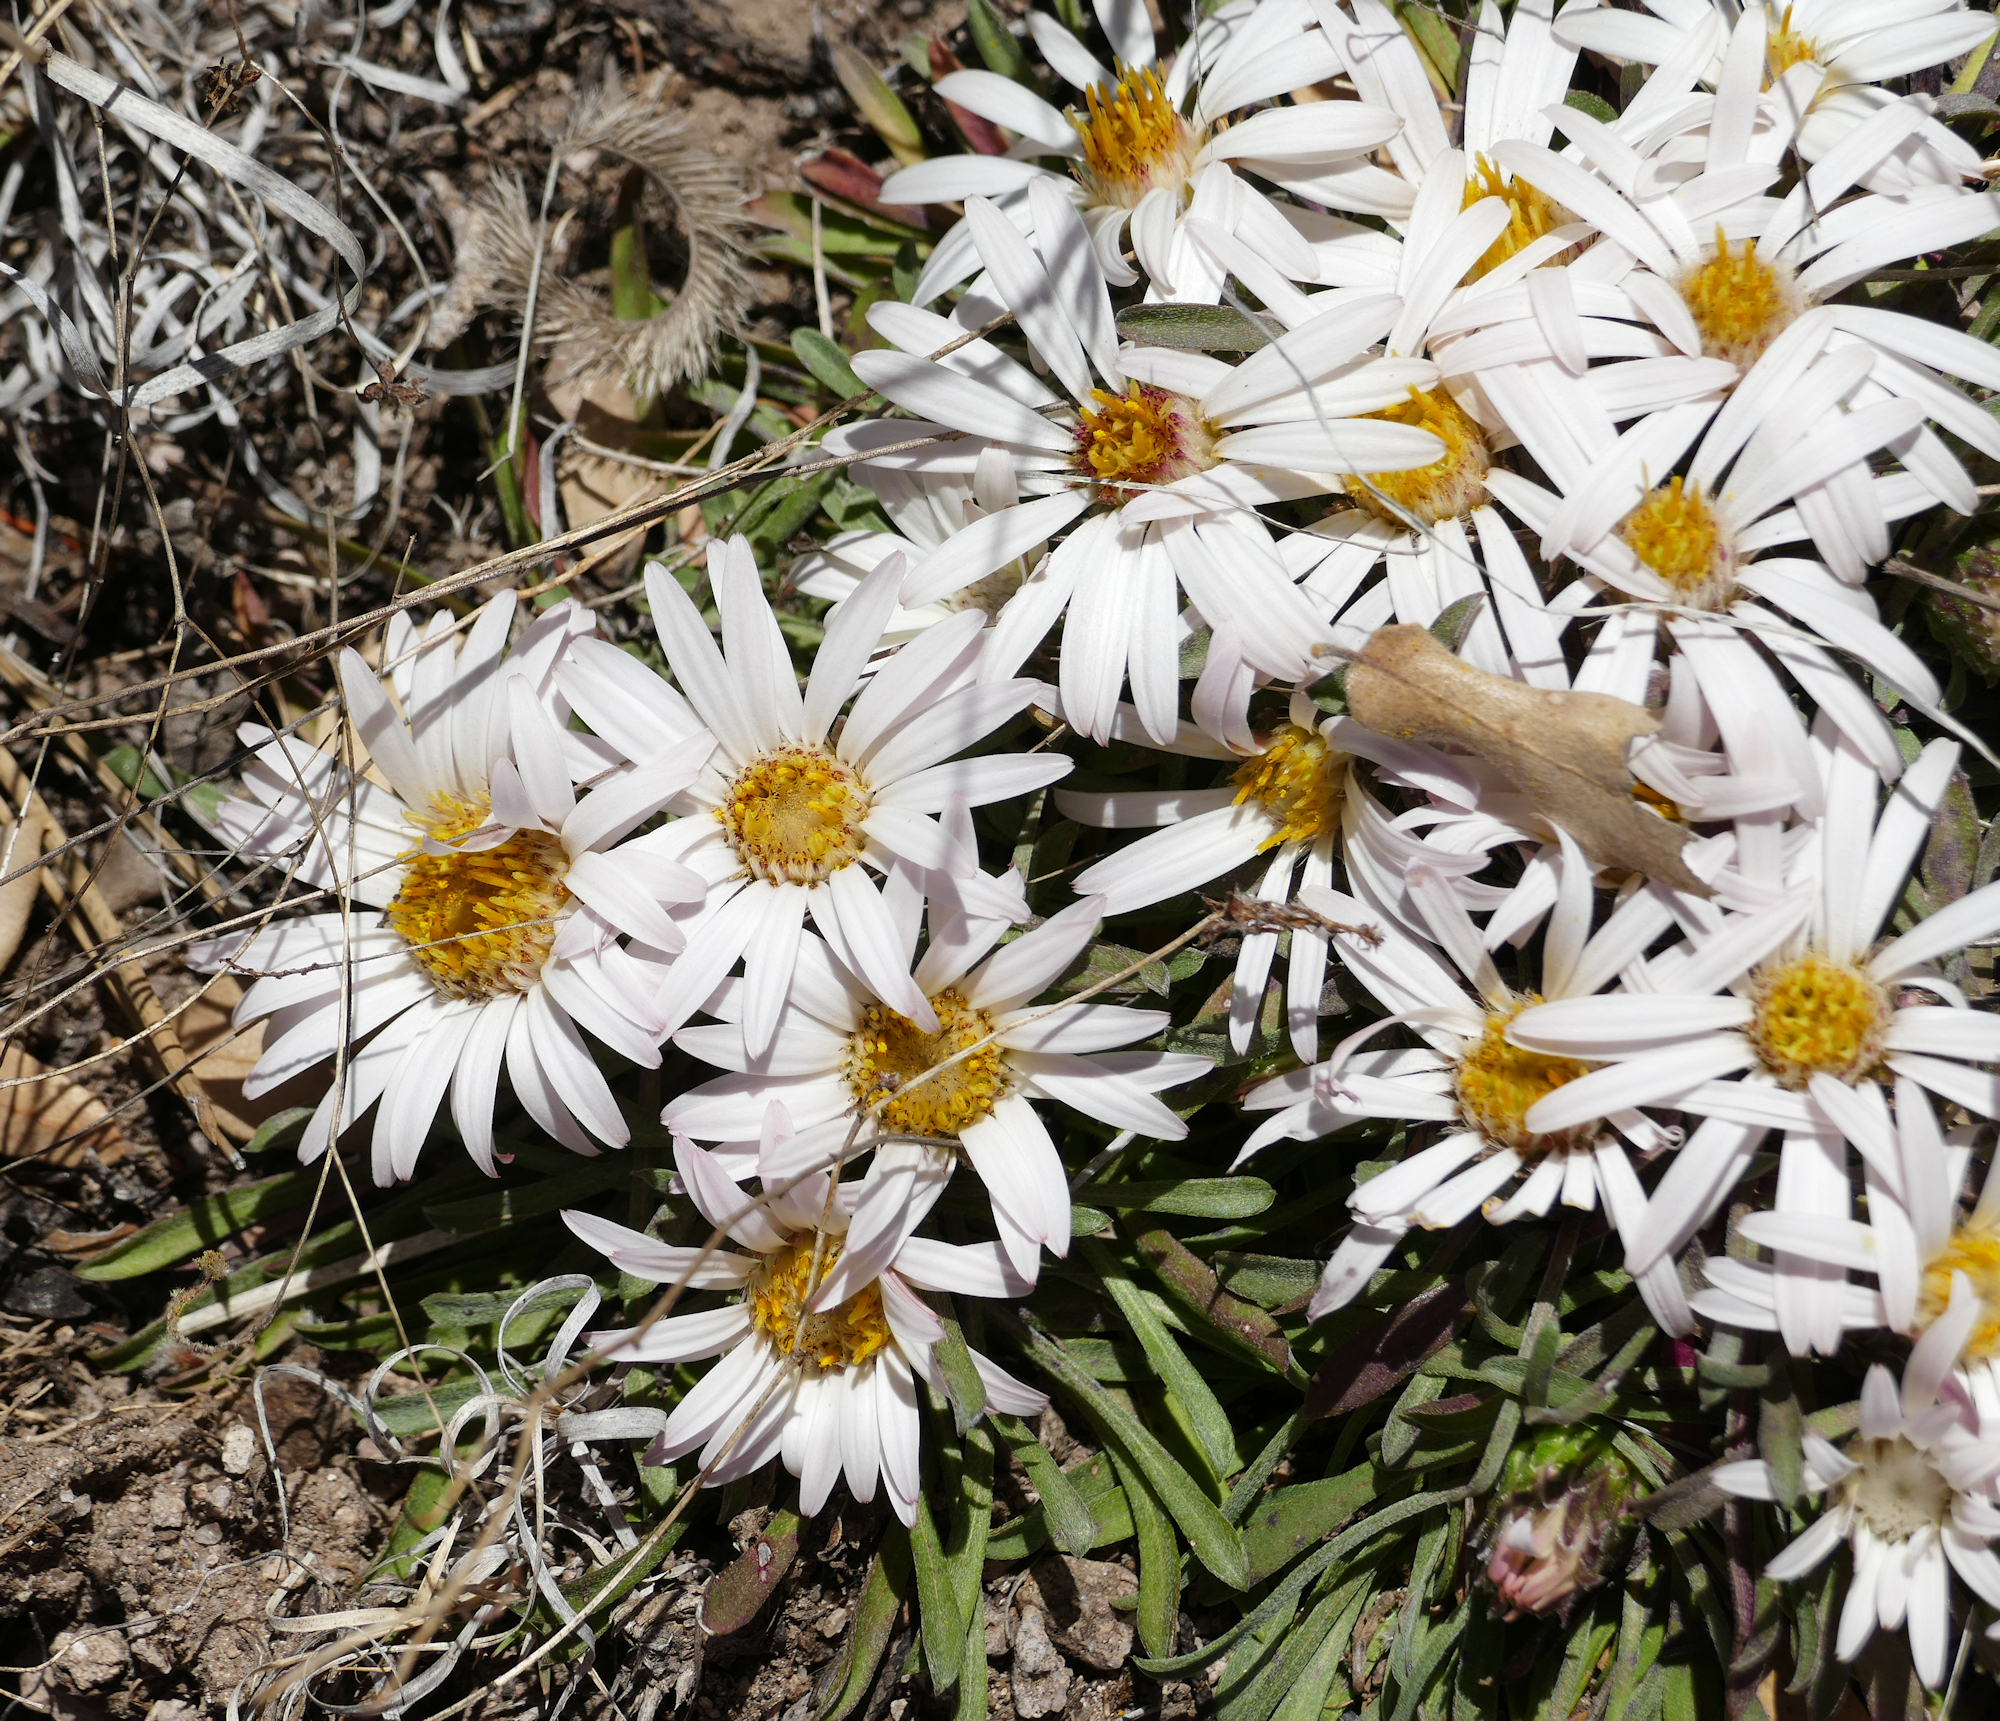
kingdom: Plantae
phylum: Tracheophyta
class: Magnoliopsida
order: Asterales
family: Asteraceae
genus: Townsendia
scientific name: Townsendia exscapa
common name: Dwarf townsendia
